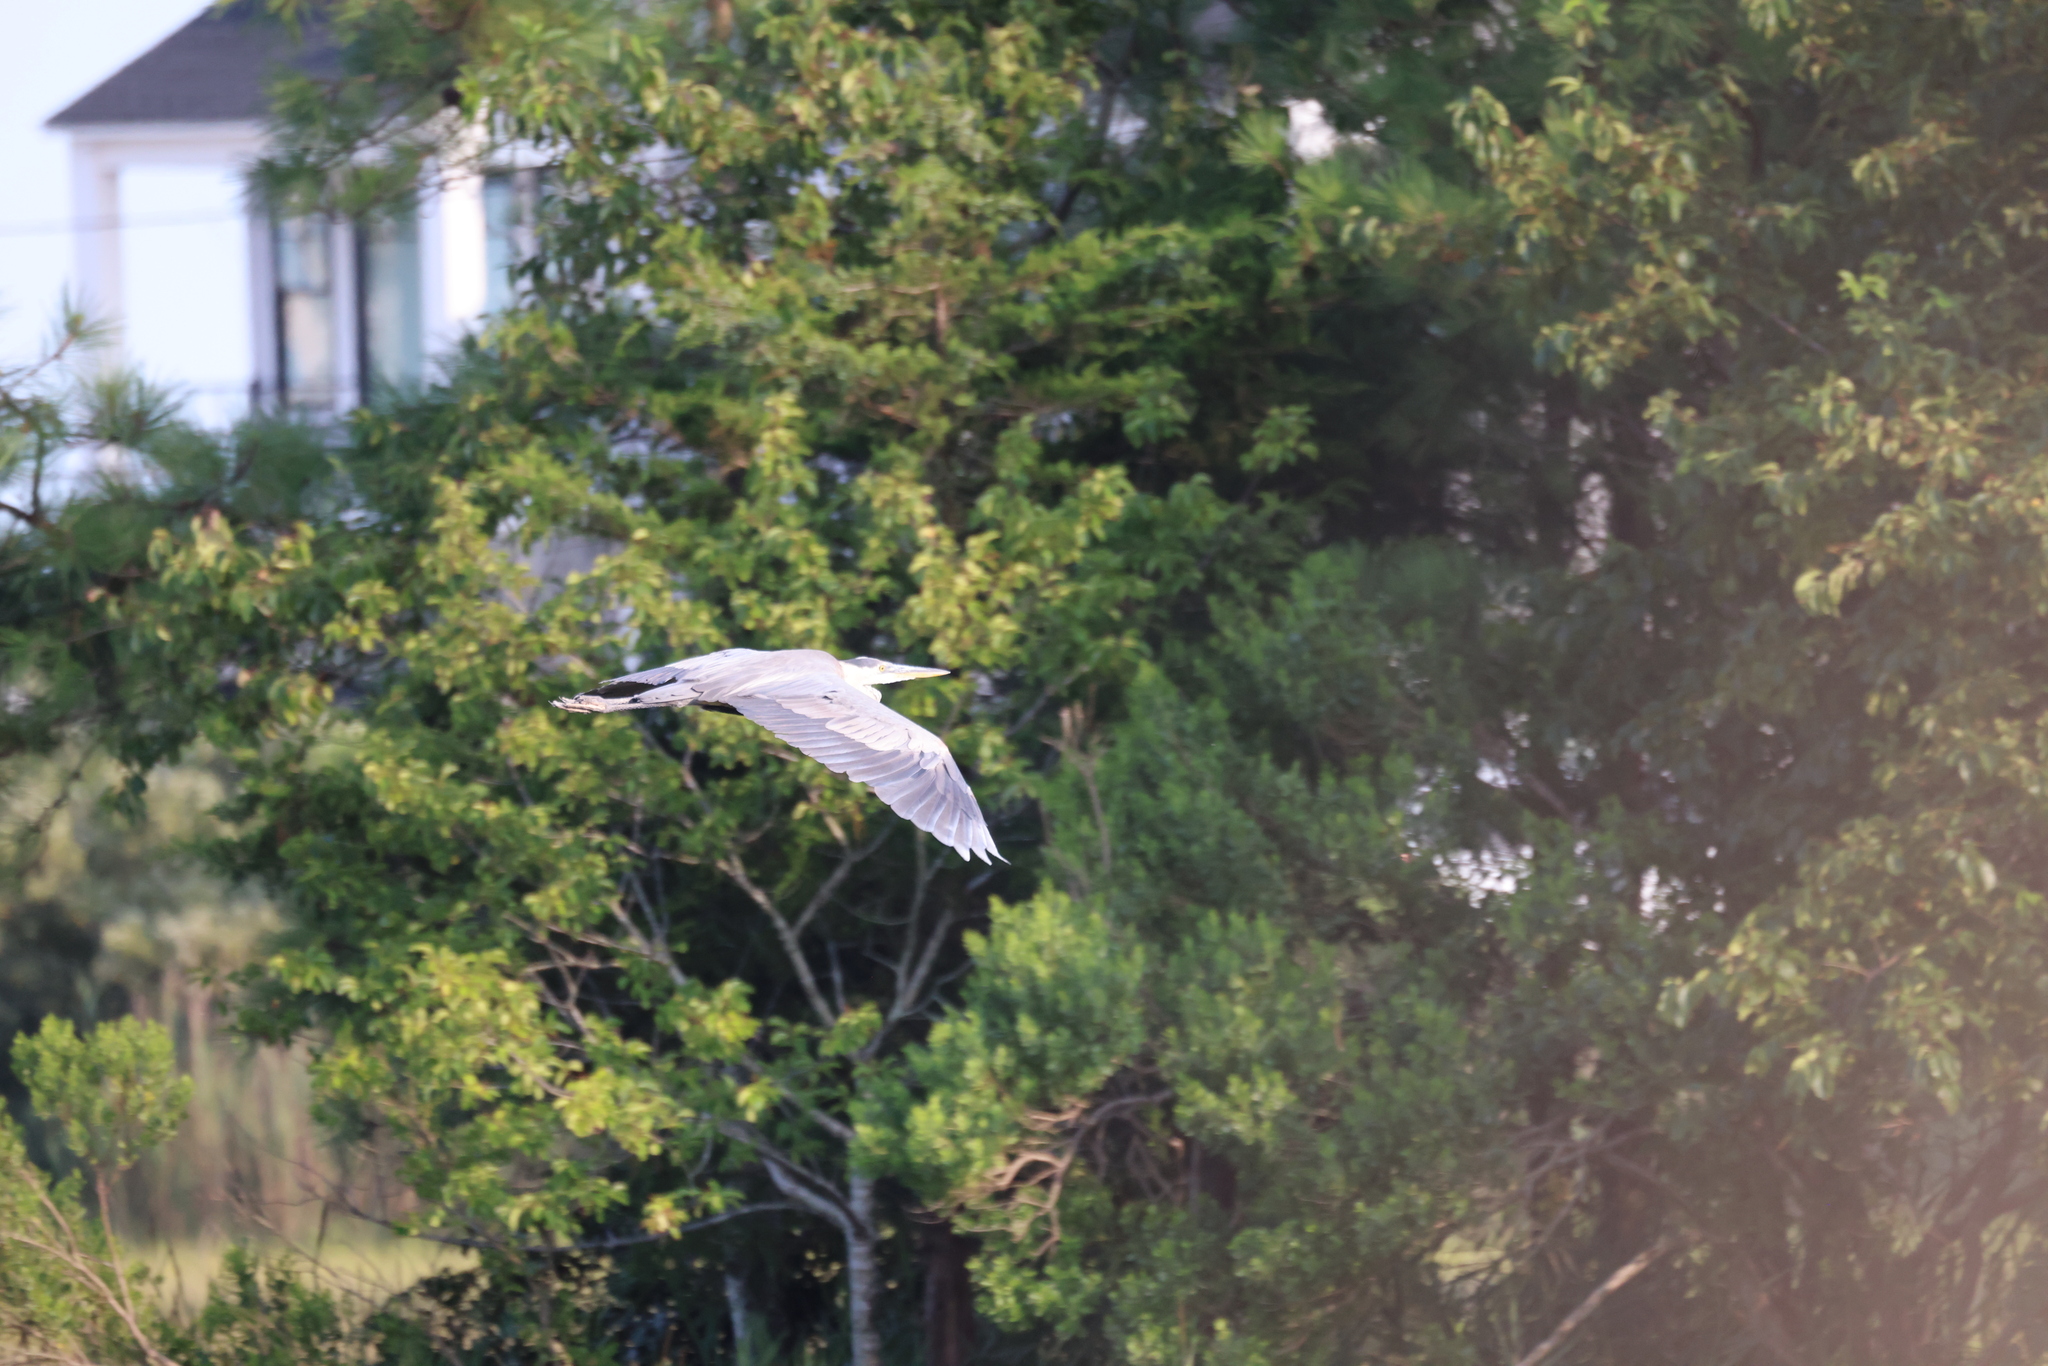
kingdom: Animalia
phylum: Chordata
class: Aves
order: Pelecaniformes
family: Ardeidae
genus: Ardea
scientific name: Ardea herodias
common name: Great blue heron
